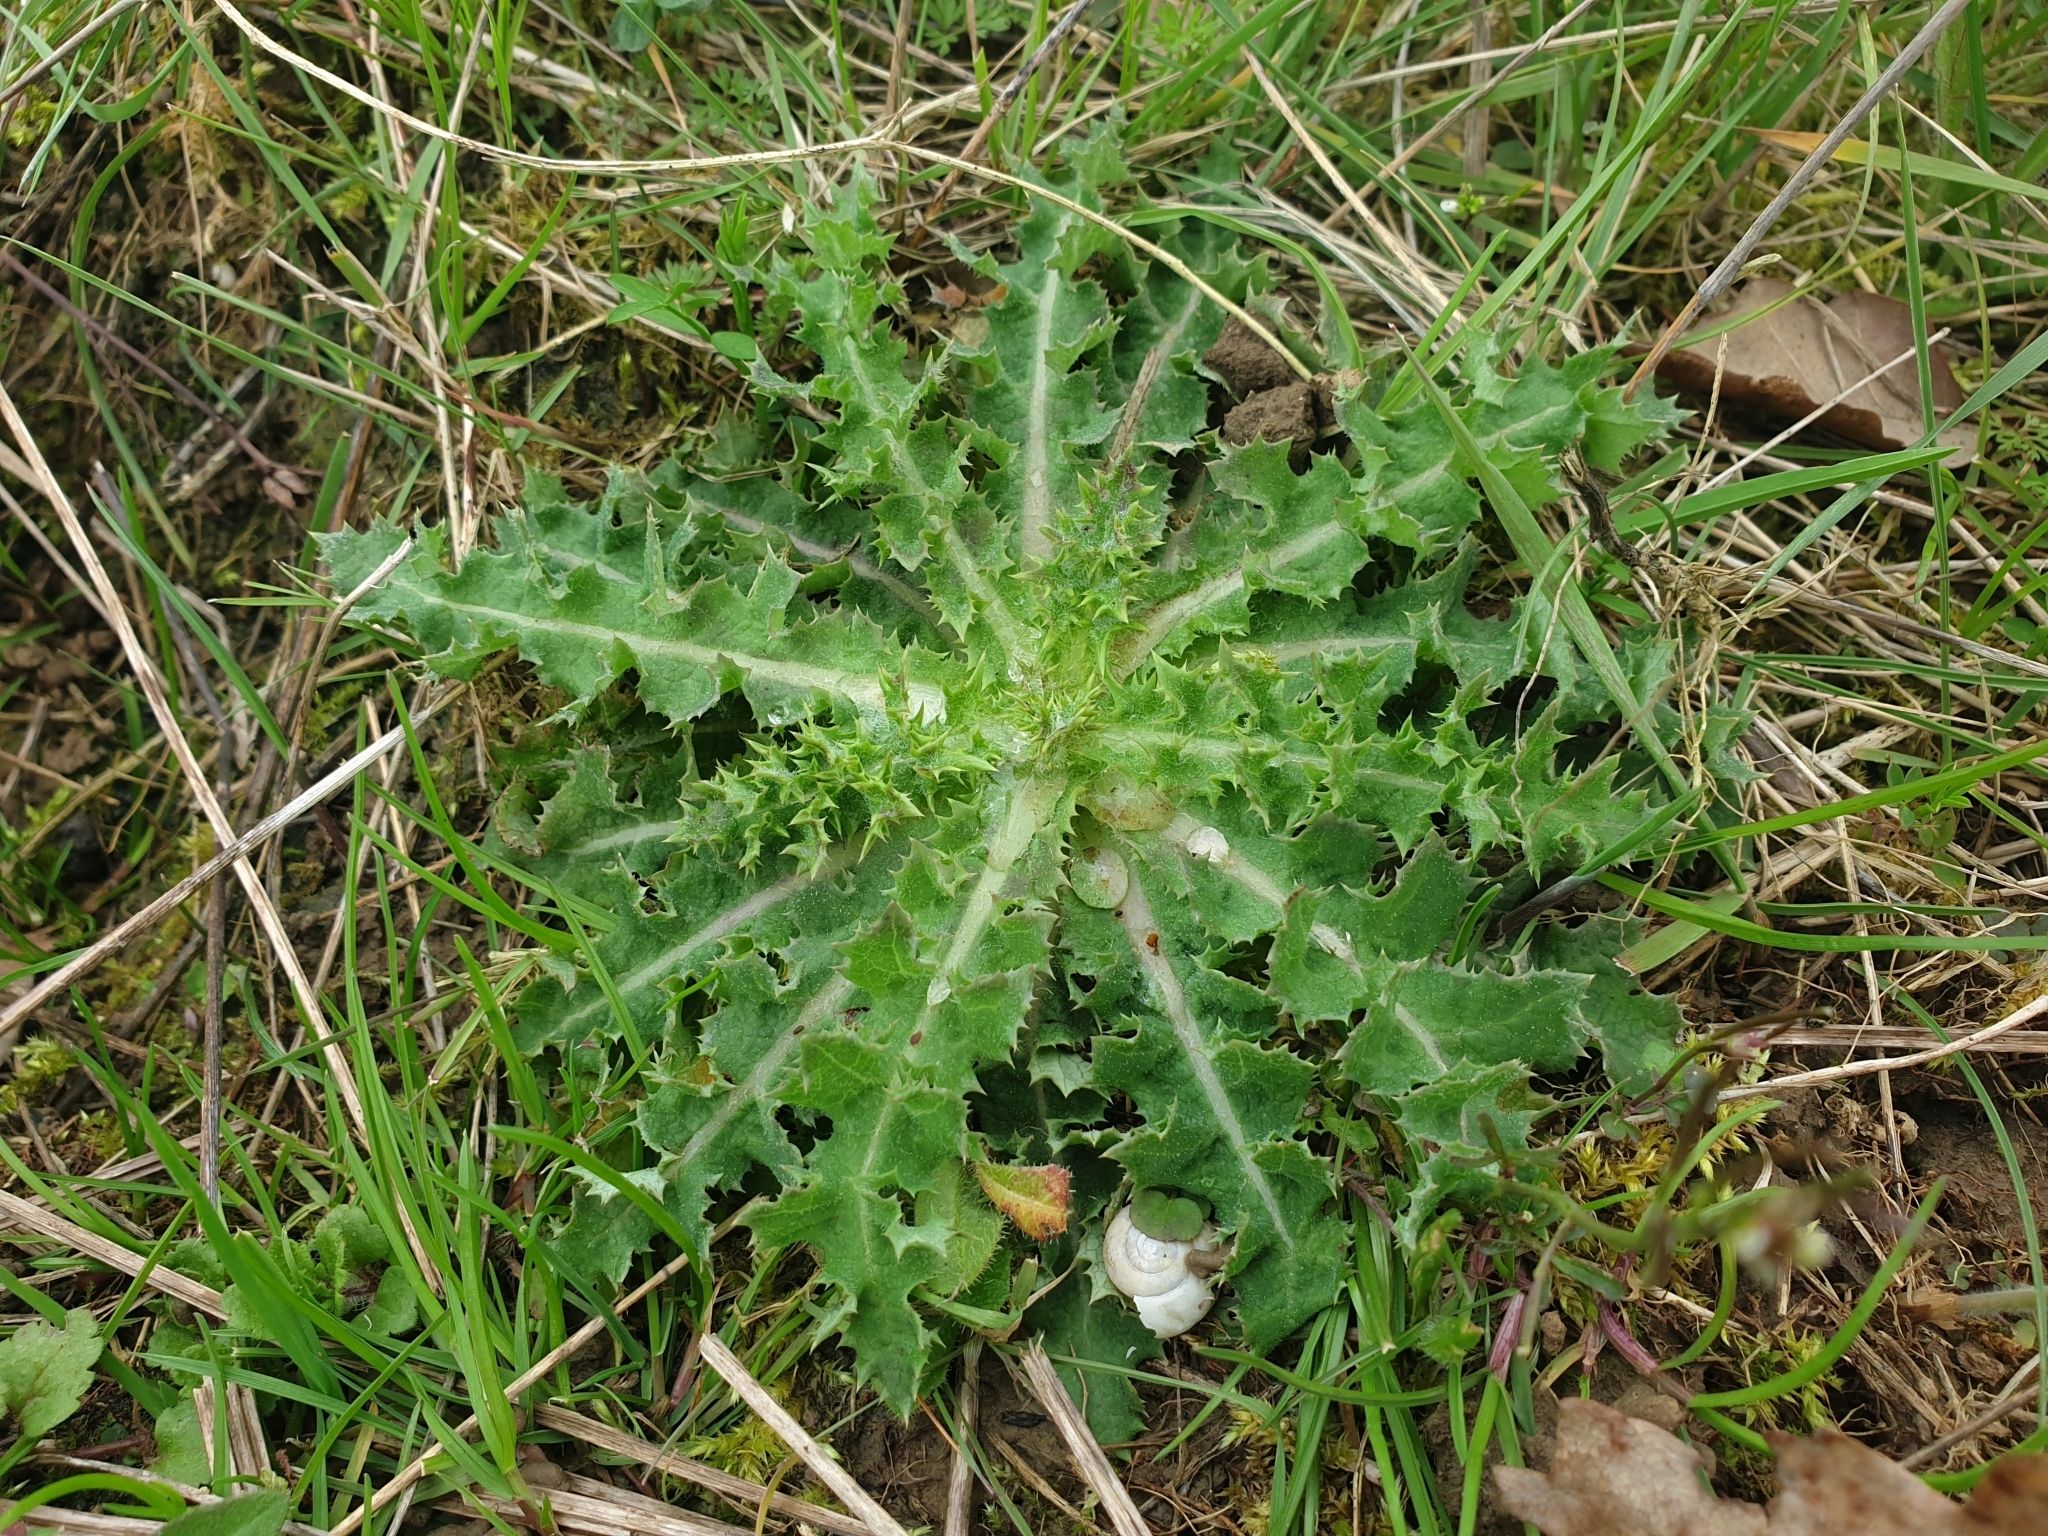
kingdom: Plantae
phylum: Tracheophyta
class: Magnoliopsida
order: Asterales
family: Asteraceae
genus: Sonchus
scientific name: Sonchus asper
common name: Prickly sow-thistle
